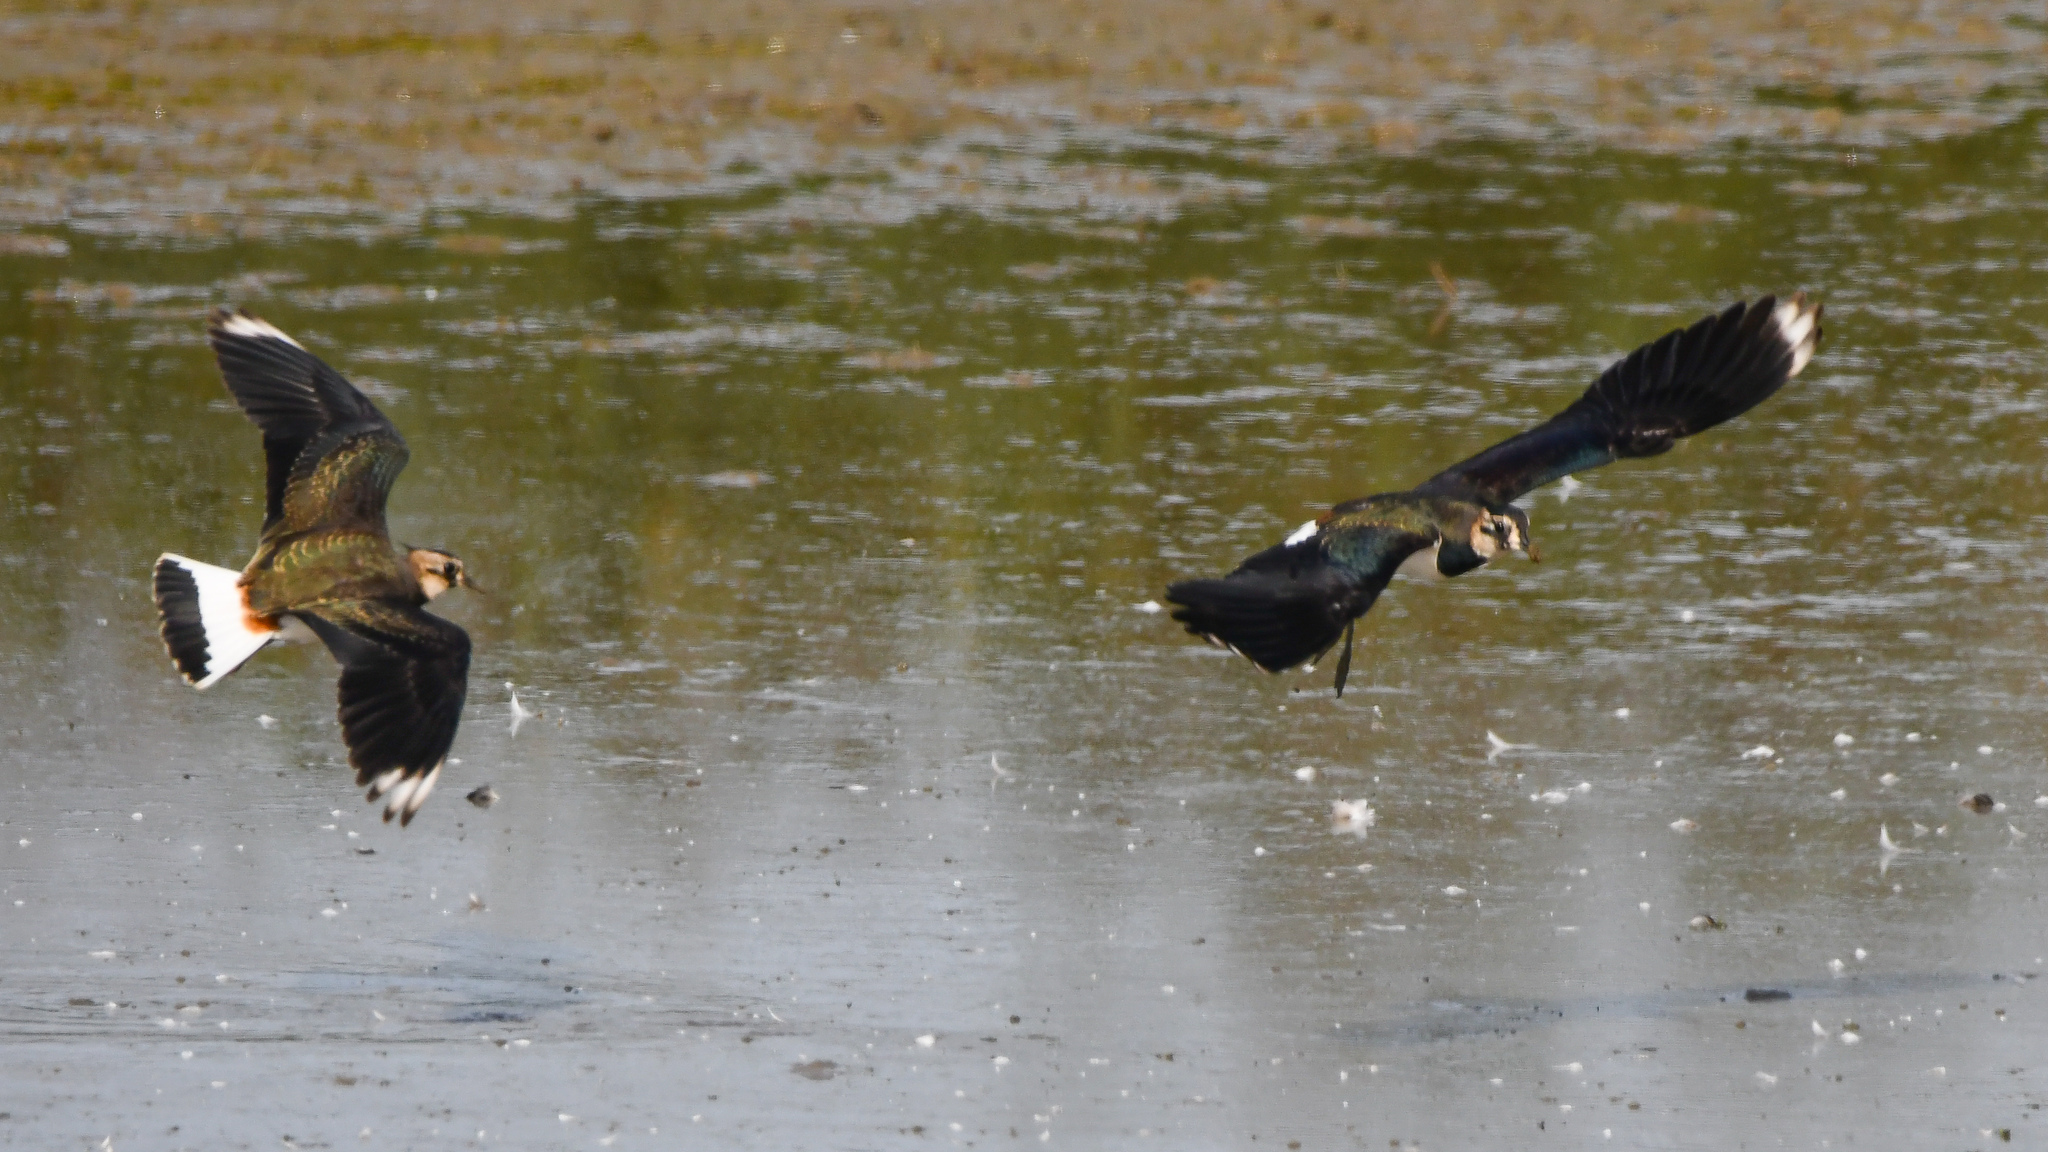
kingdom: Animalia
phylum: Chordata
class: Aves
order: Charadriiformes
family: Charadriidae
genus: Vanellus
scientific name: Vanellus vanellus
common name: Northern lapwing
